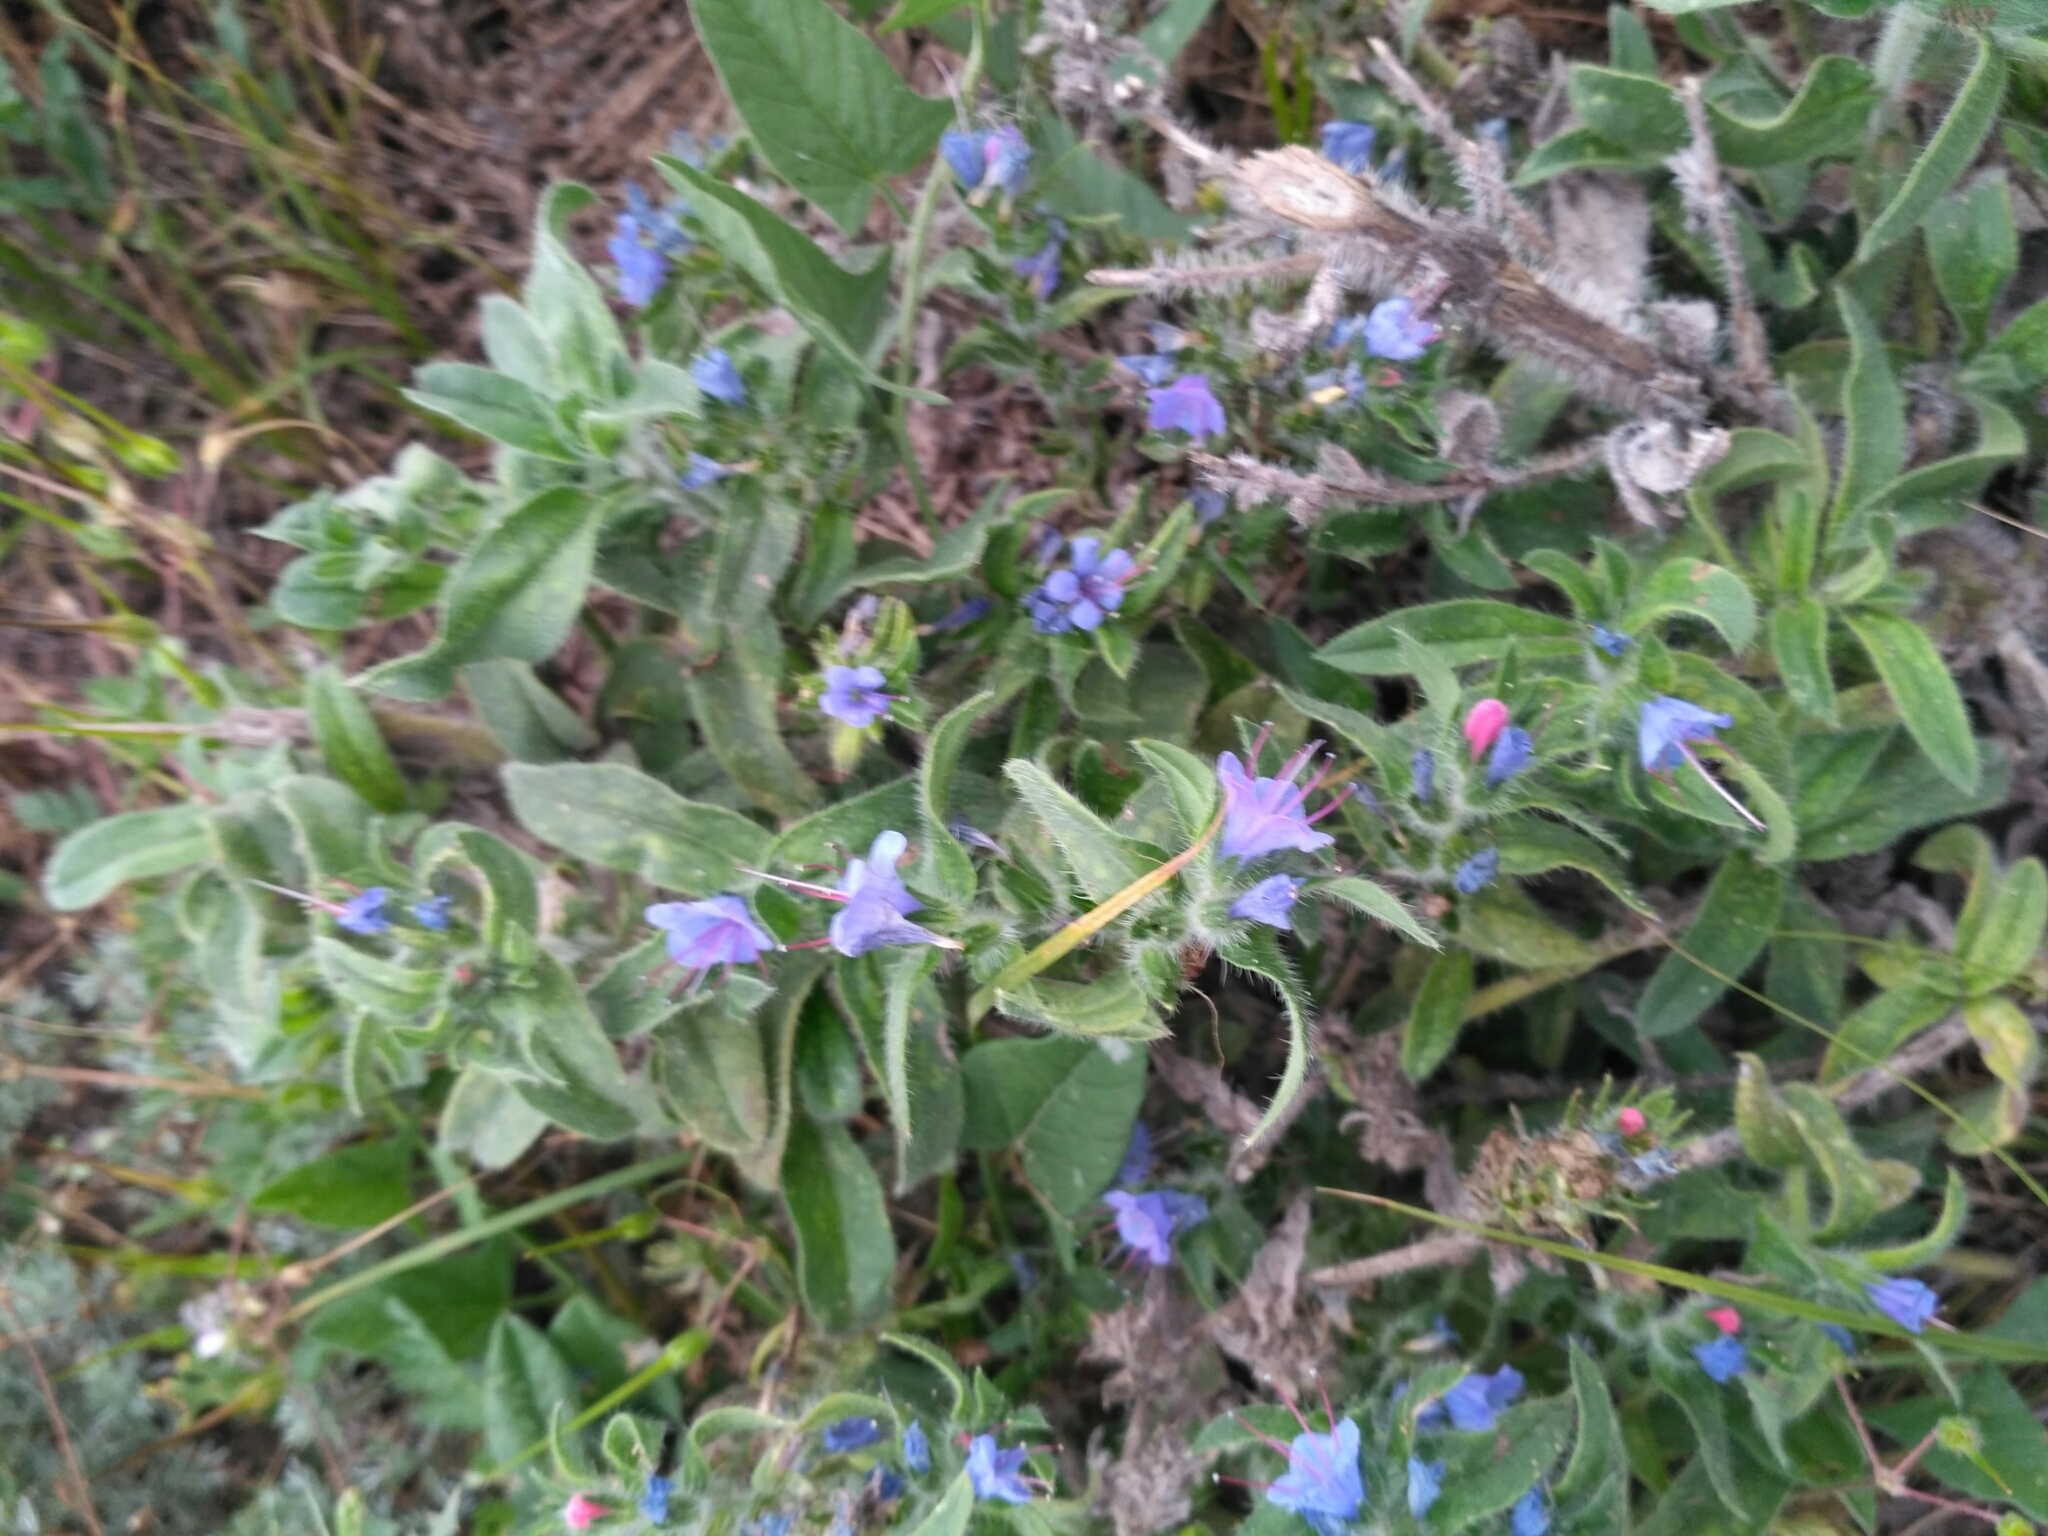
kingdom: Plantae
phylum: Tracheophyta
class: Magnoliopsida
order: Boraginales
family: Boraginaceae
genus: Echium
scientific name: Echium vulgare
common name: Common viper's bugloss
